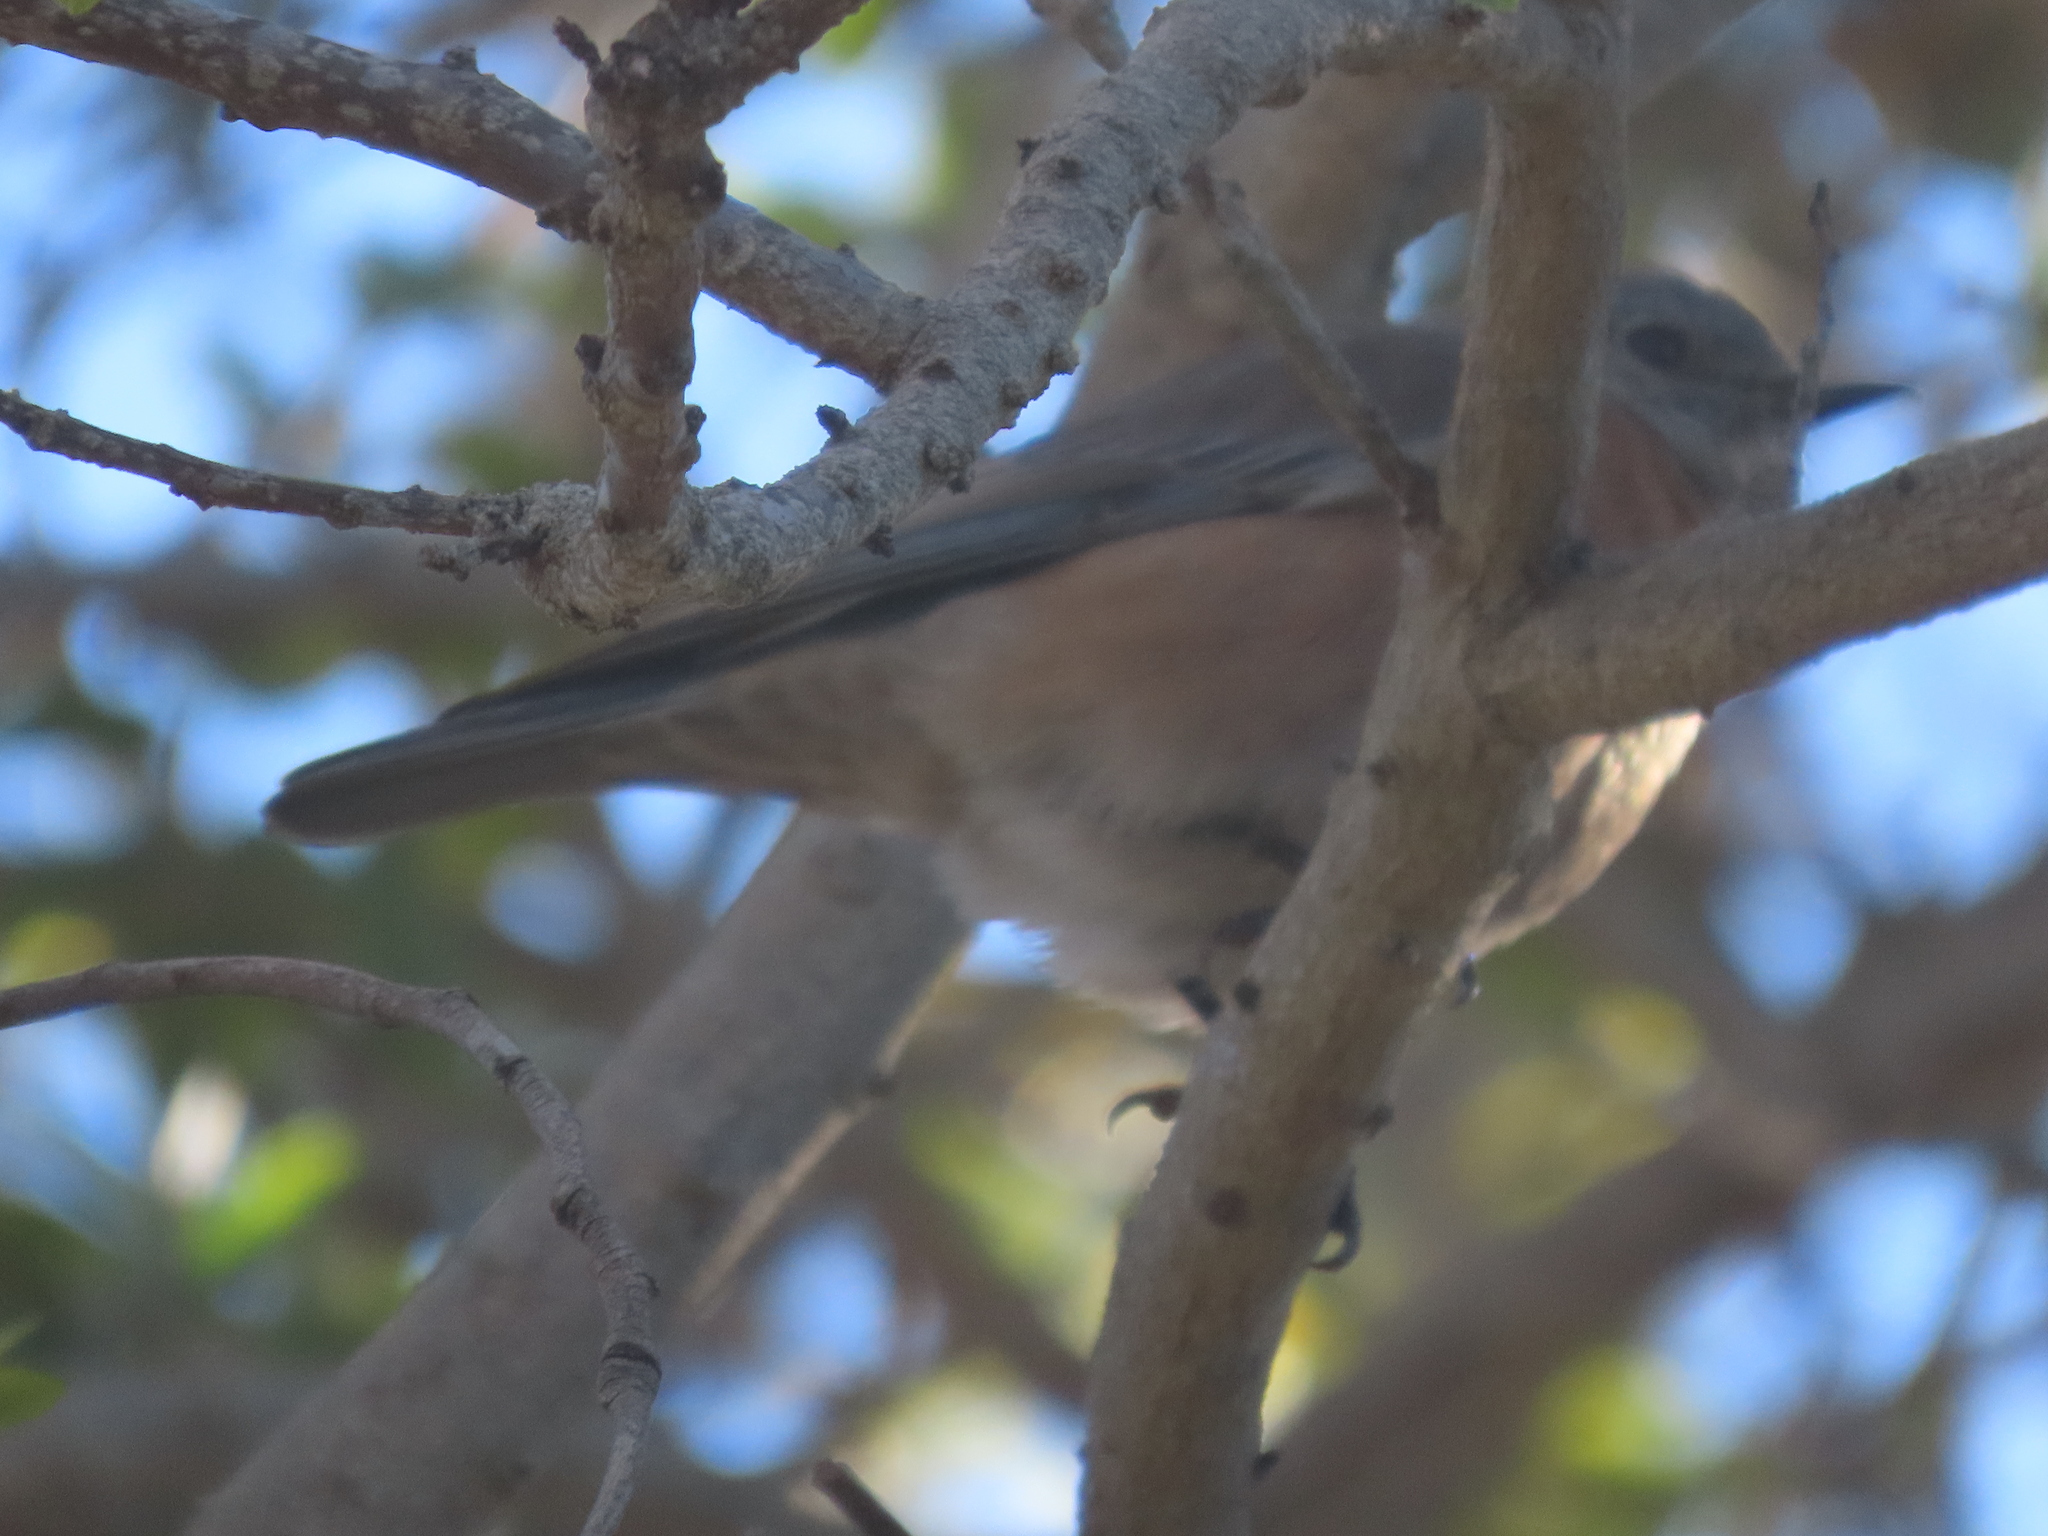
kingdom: Animalia
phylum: Chordata
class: Aves
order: Passeriformes
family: Turdidae
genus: Sialia
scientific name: Sialia mexicana
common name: Western bluebird
